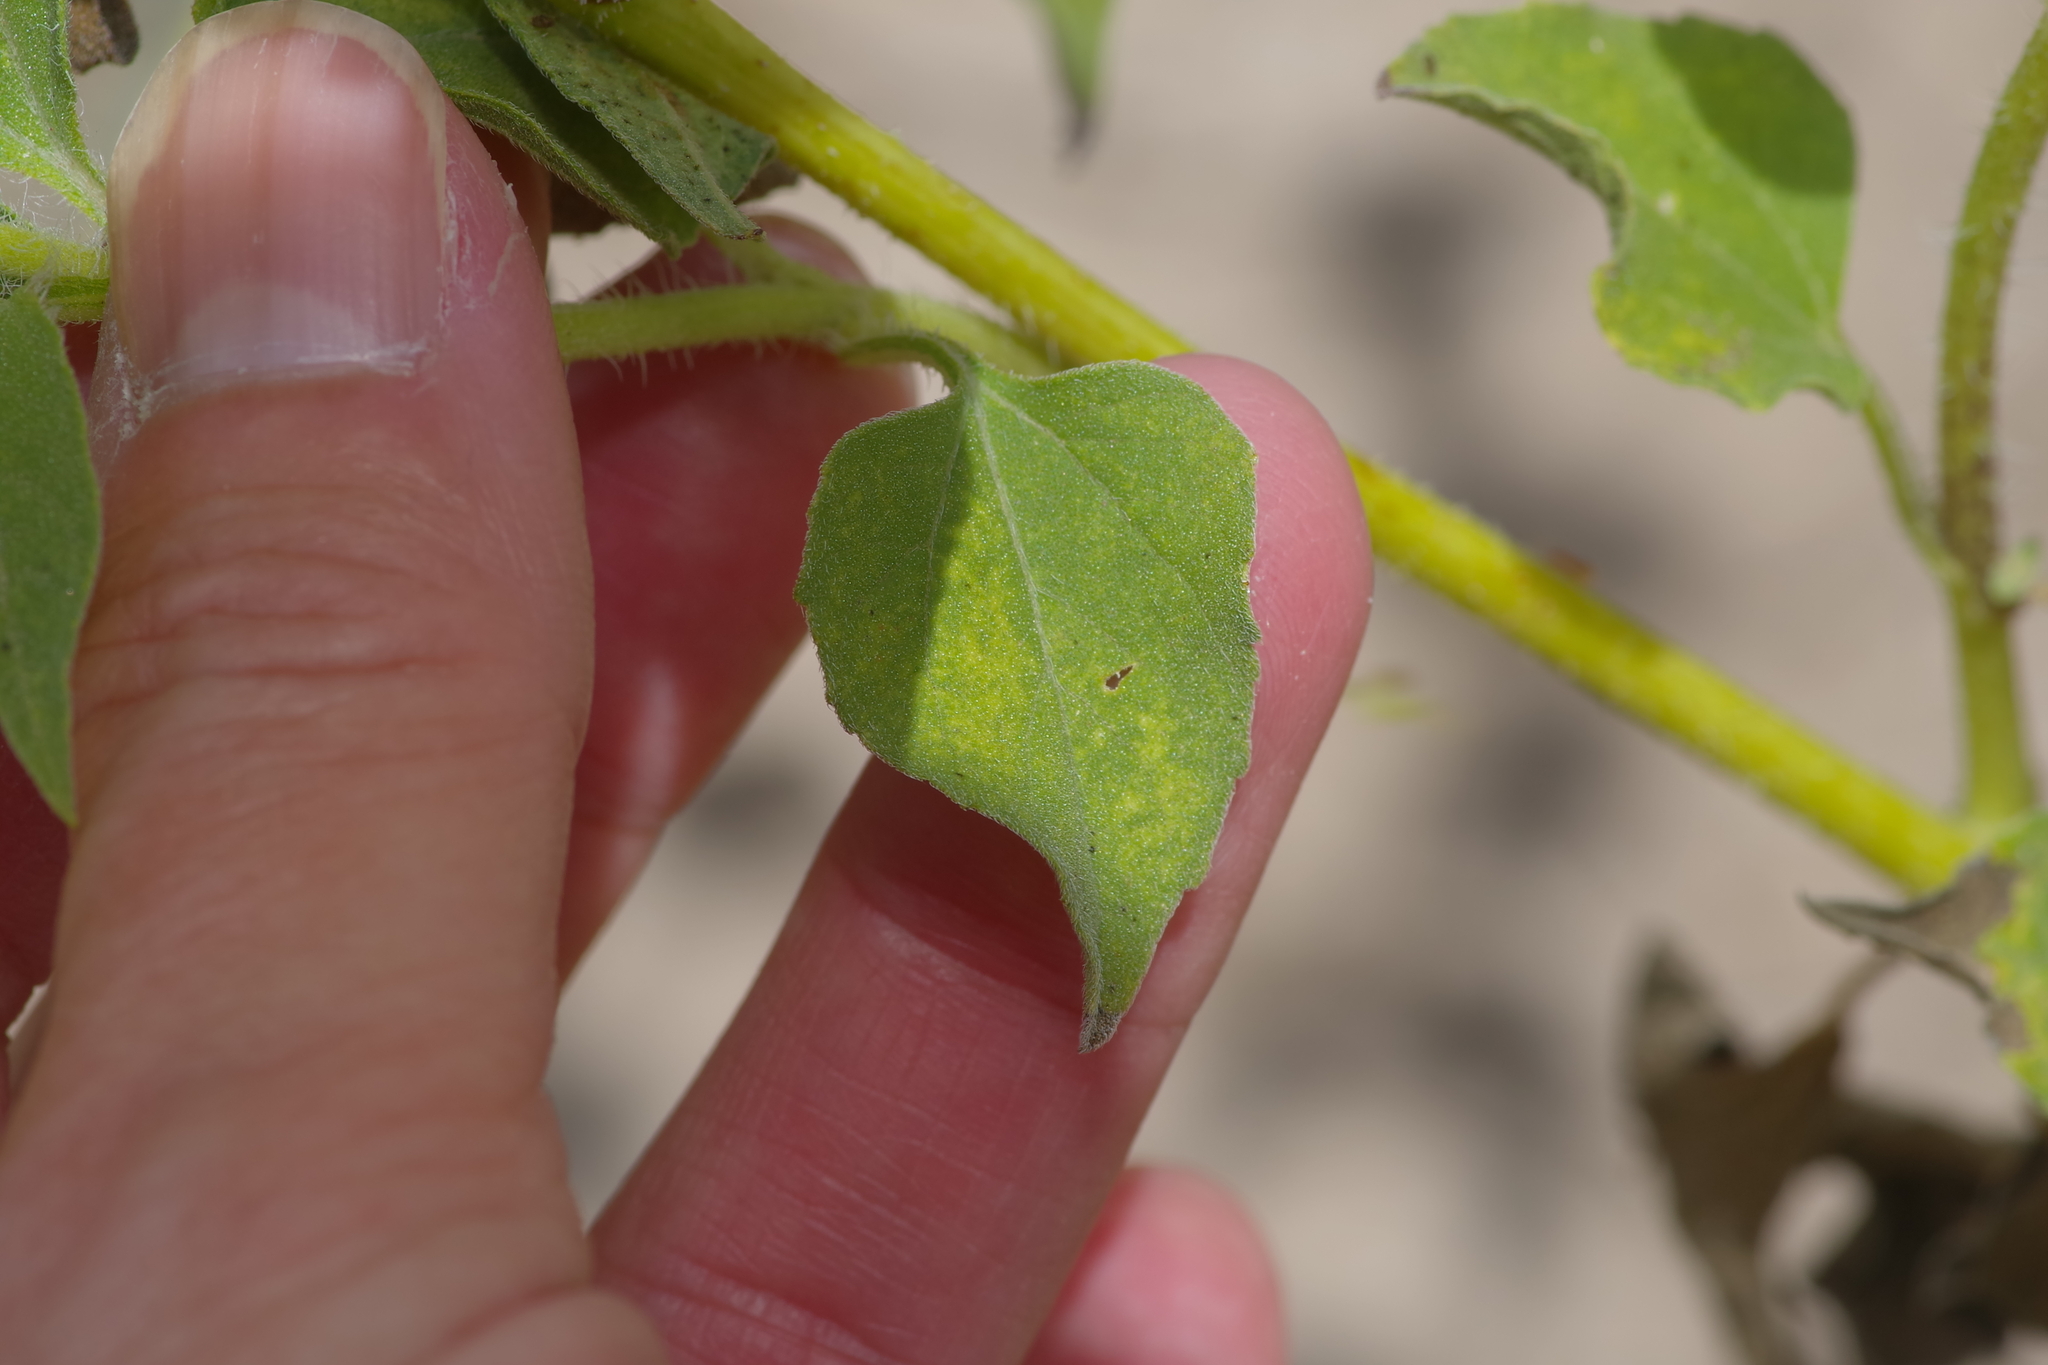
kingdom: Plantae
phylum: Tracheophyta
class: Magnoliopsida
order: Asterales
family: Asteraceae
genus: Helianthus
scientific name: Helianthus annuus
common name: Sunflower
